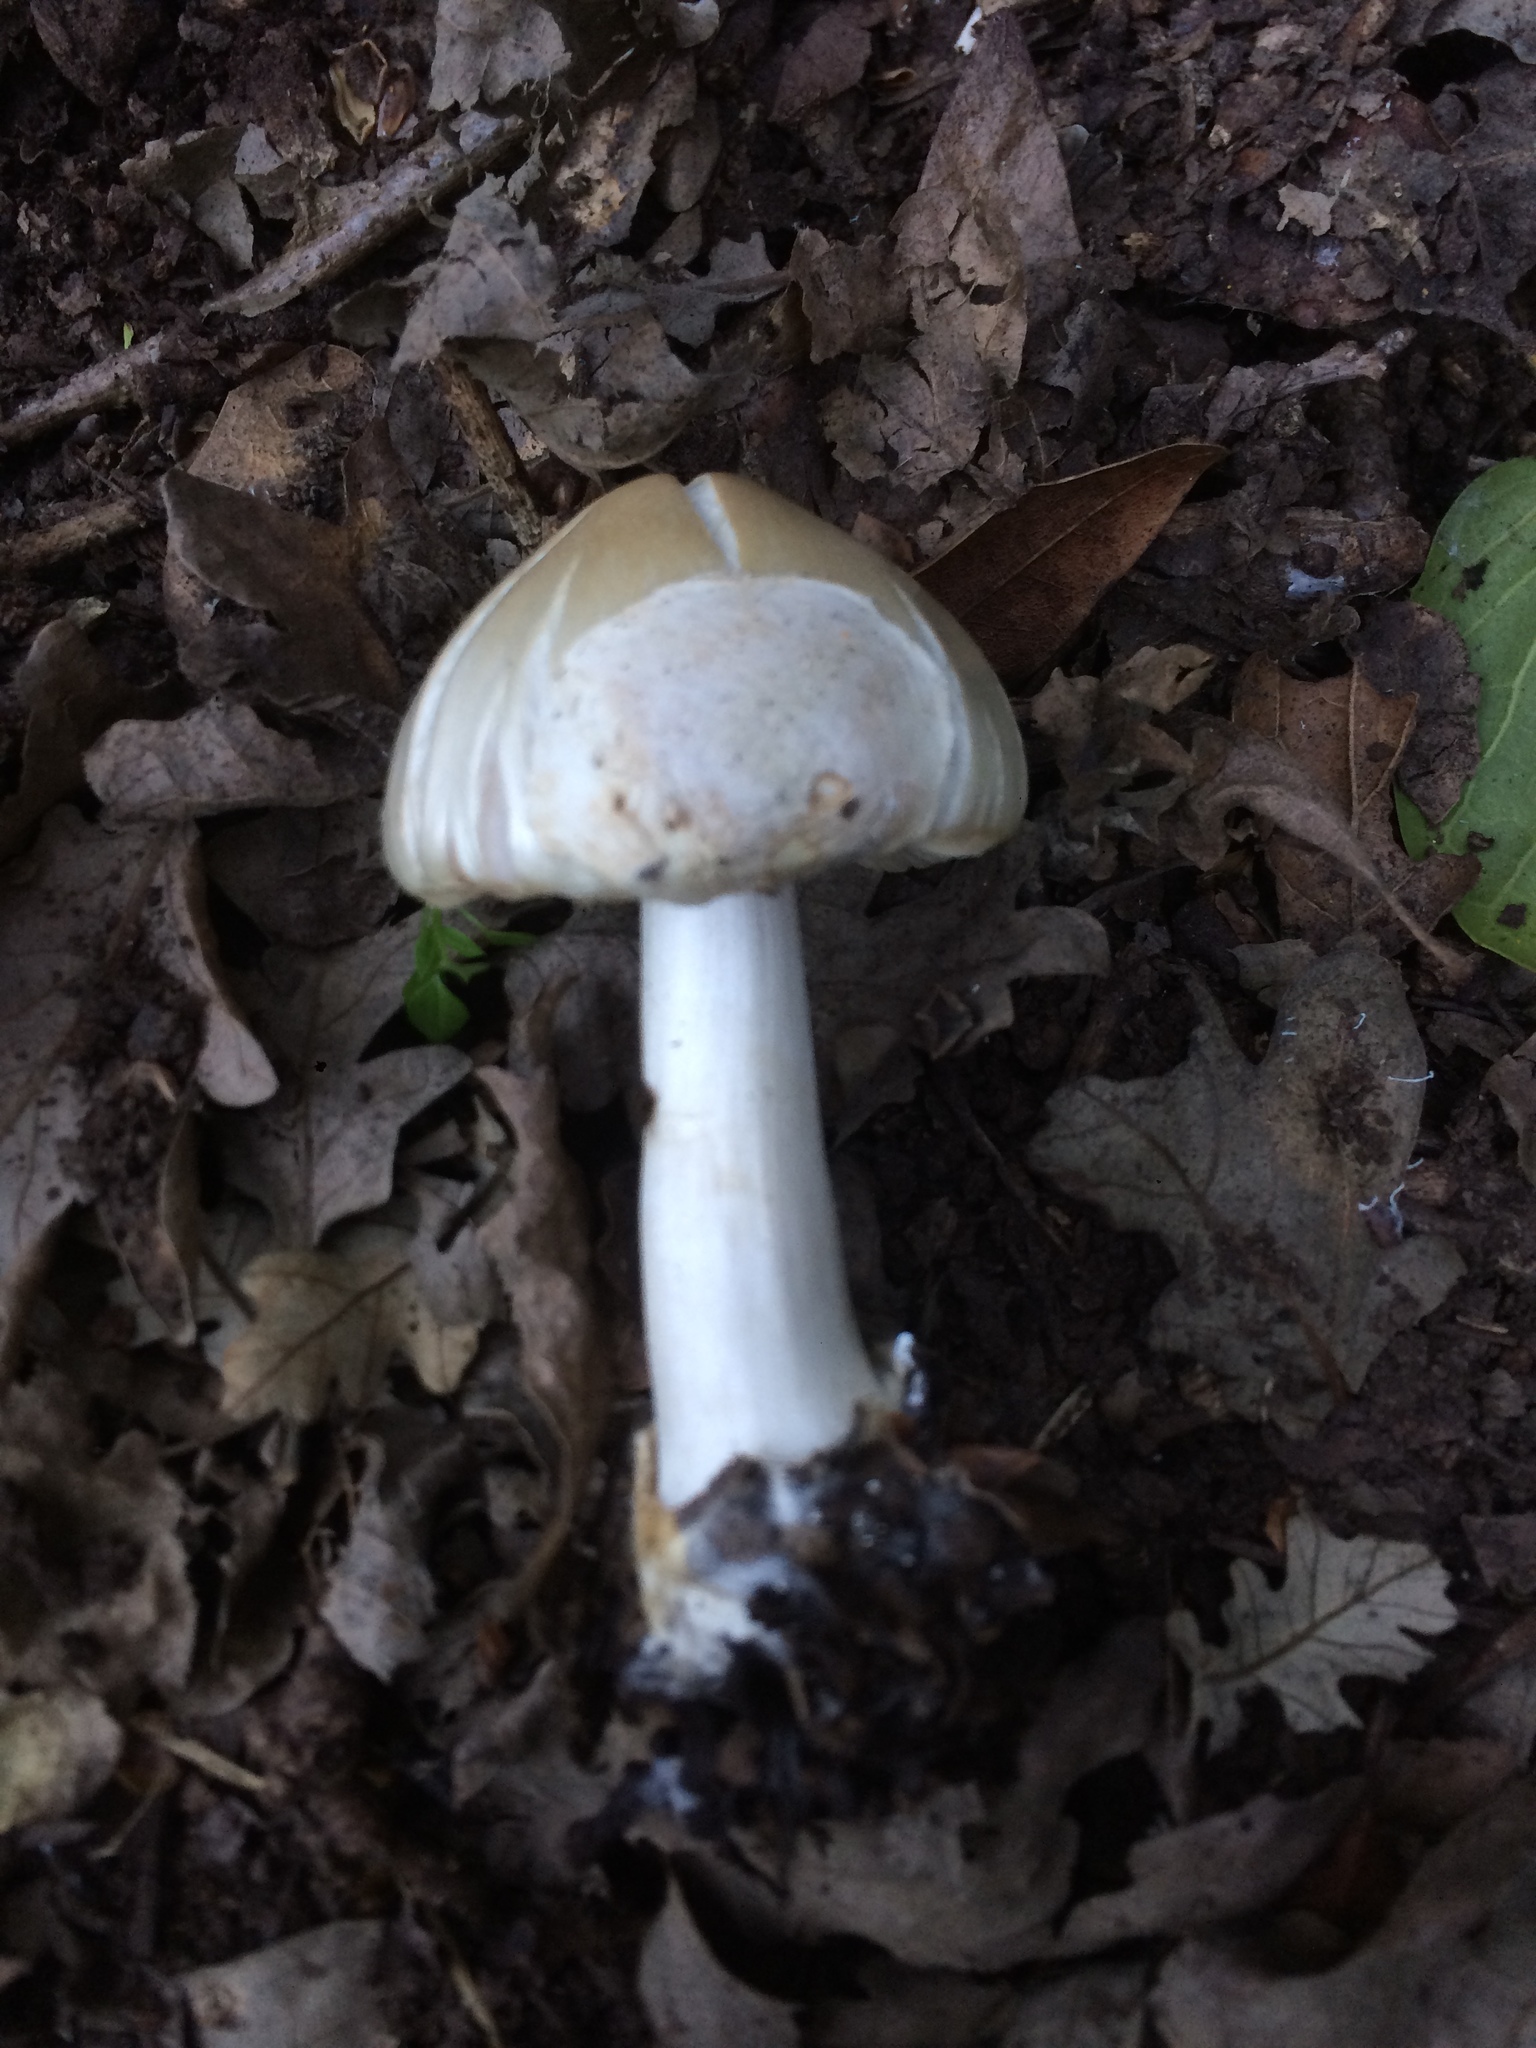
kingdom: Fungi
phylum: Basidiomycota
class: Agaricomycetes
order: Agaricales
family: Pluteaceae
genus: Volvopluteus
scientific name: Volvopluteus gloiocephalus
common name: Stubble rosegill
